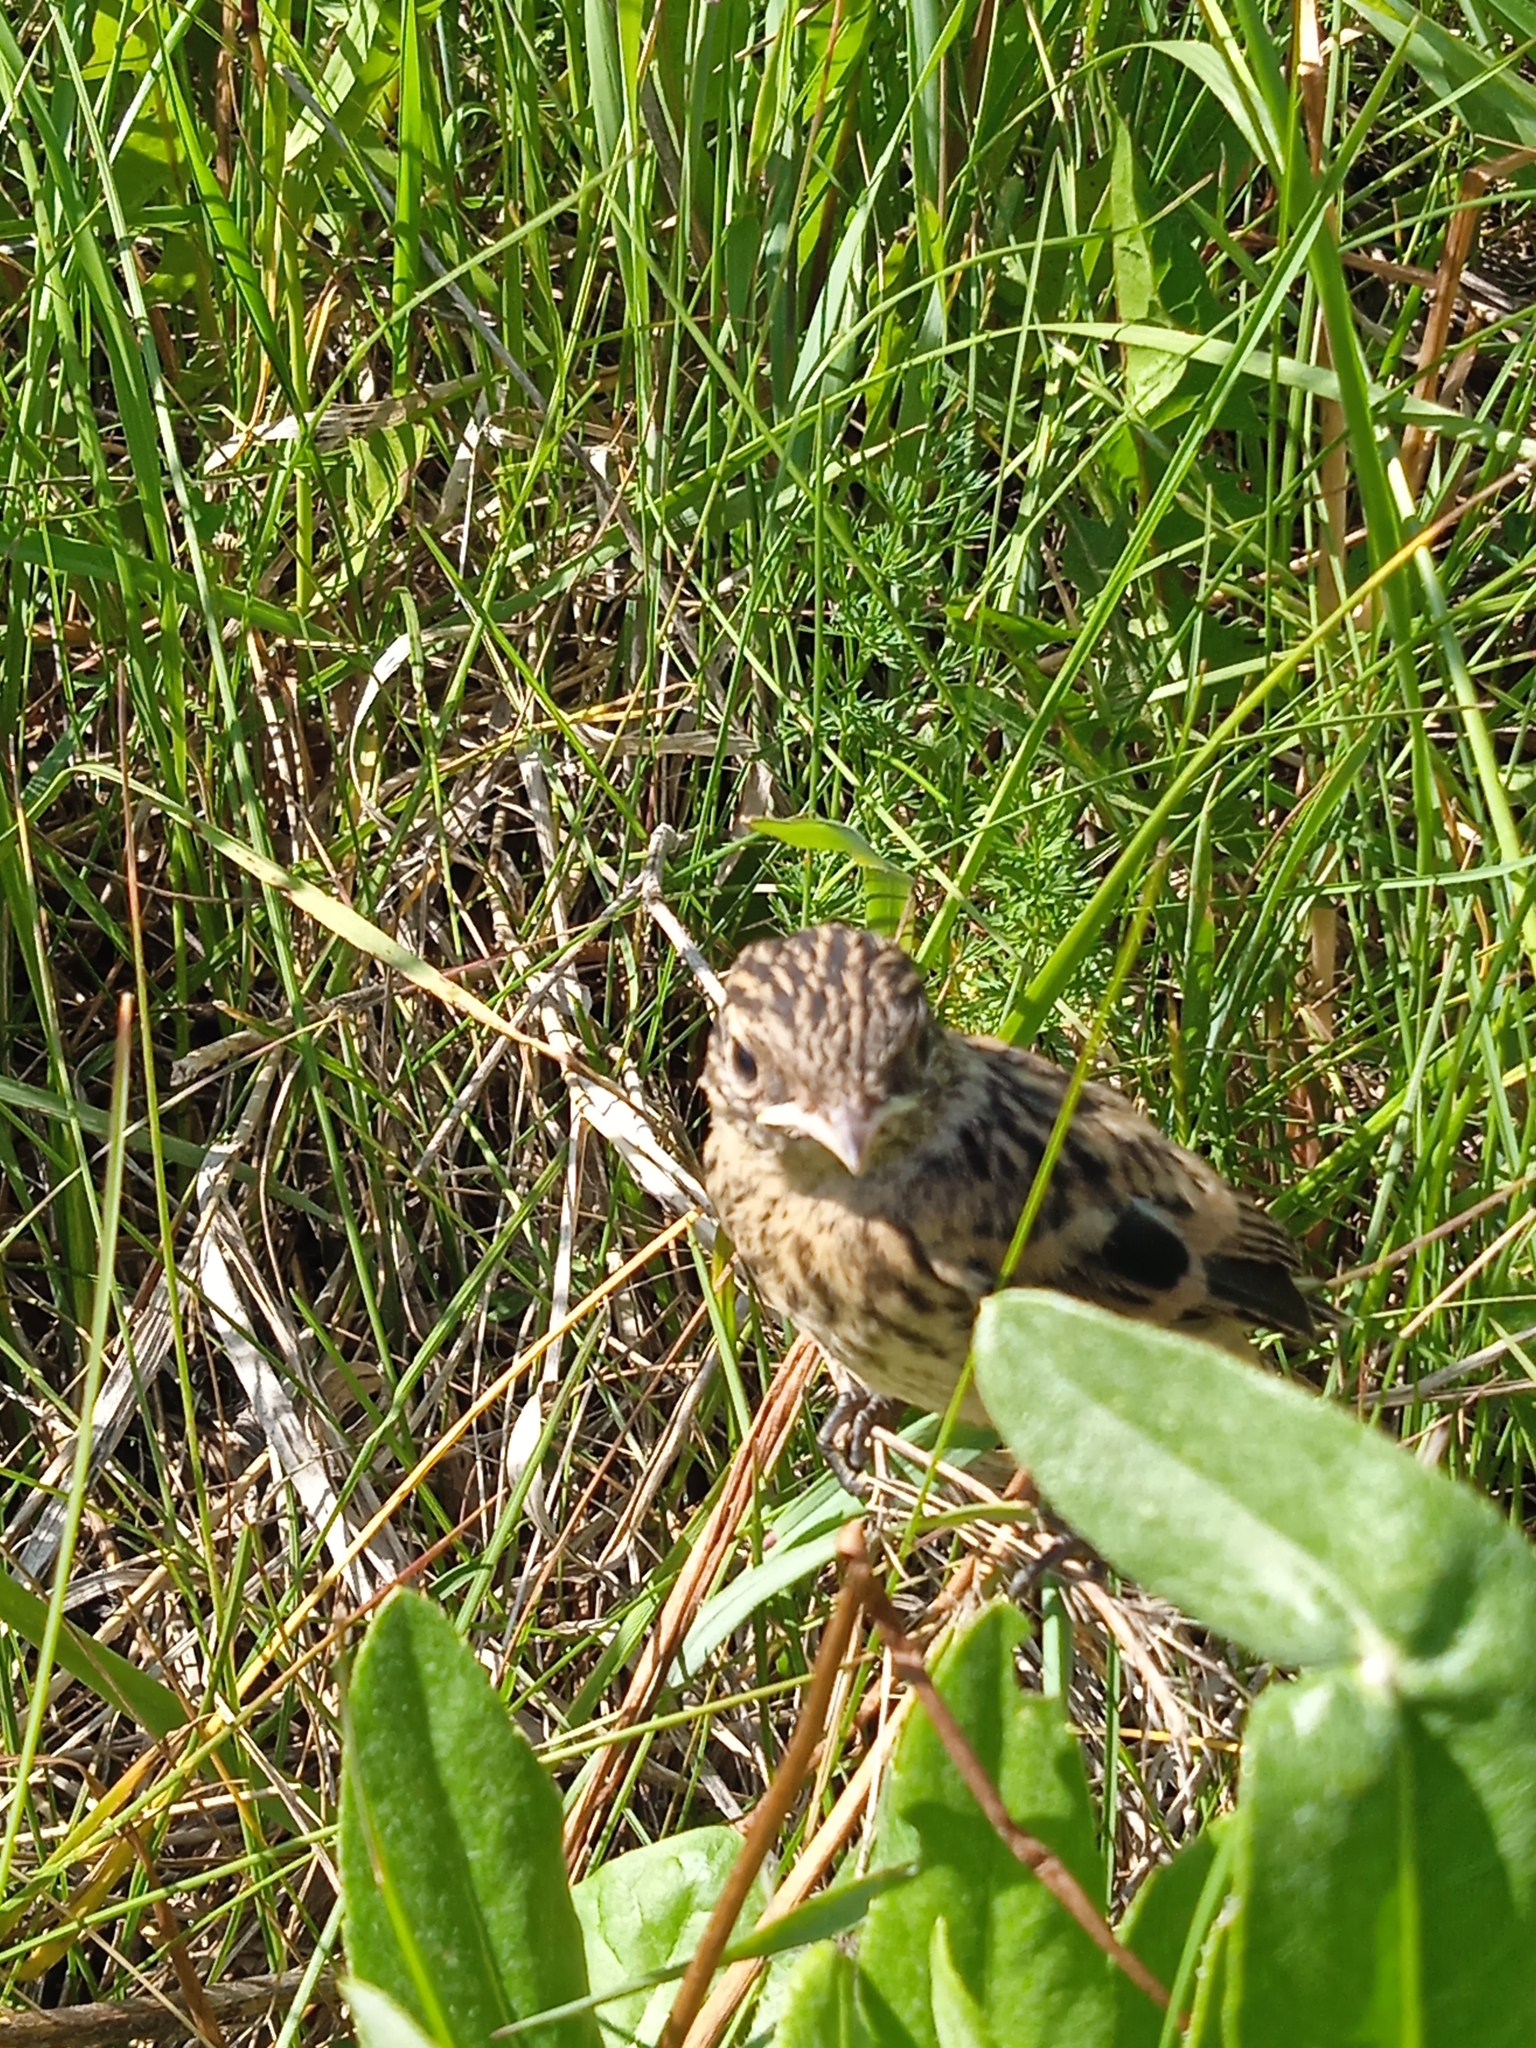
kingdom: Animalia
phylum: Chordata
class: Aves
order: Passeriformes
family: Muscicapidae
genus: Saxicola
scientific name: Saxicola maurus
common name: Siberian stonechat
